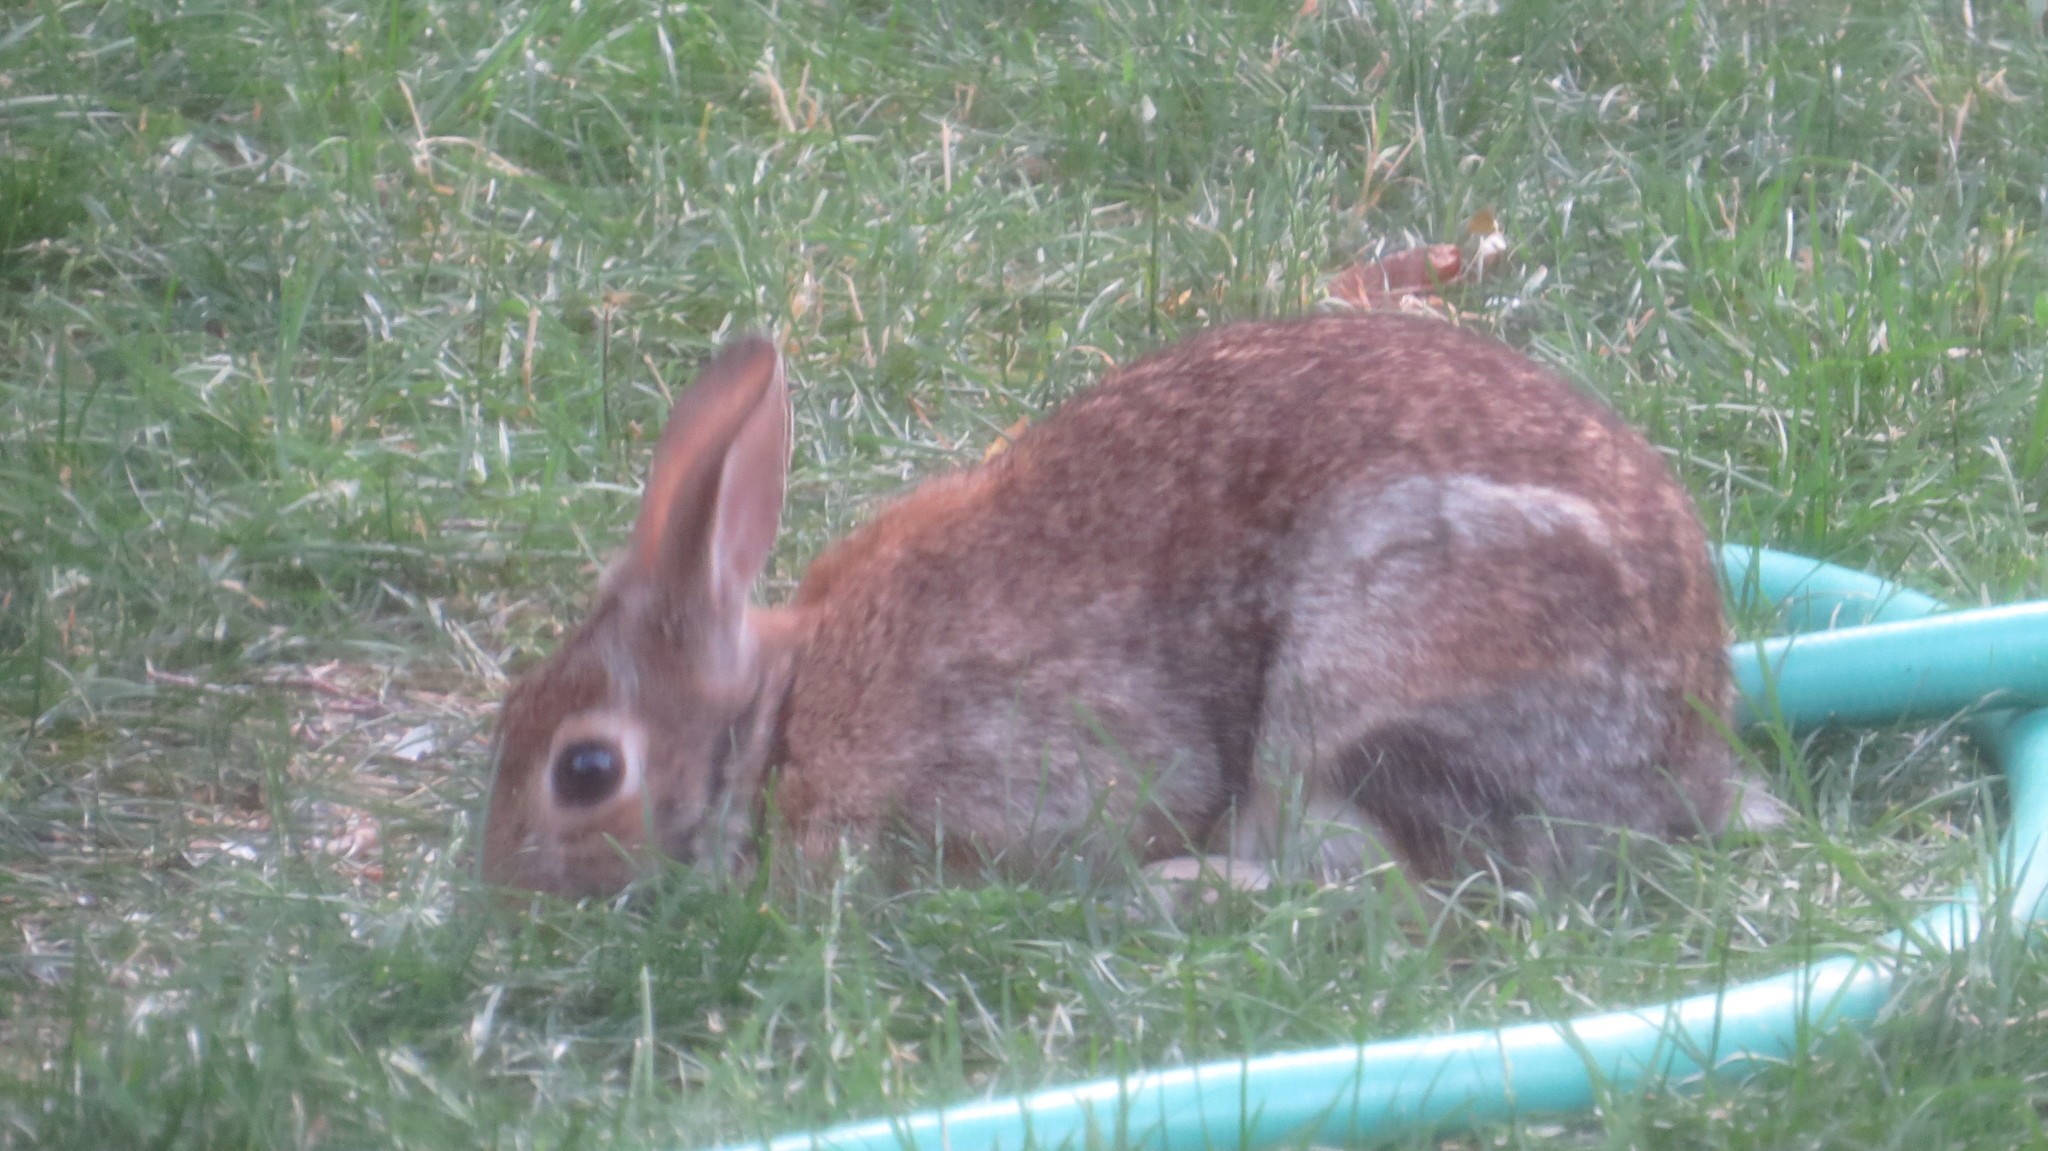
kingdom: Animalia
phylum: Chordata
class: Mammalia
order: Lagomorpha
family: Leporidae
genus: Sylvilagus
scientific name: Sylvilagus floridanus
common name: Eastern cottontail
